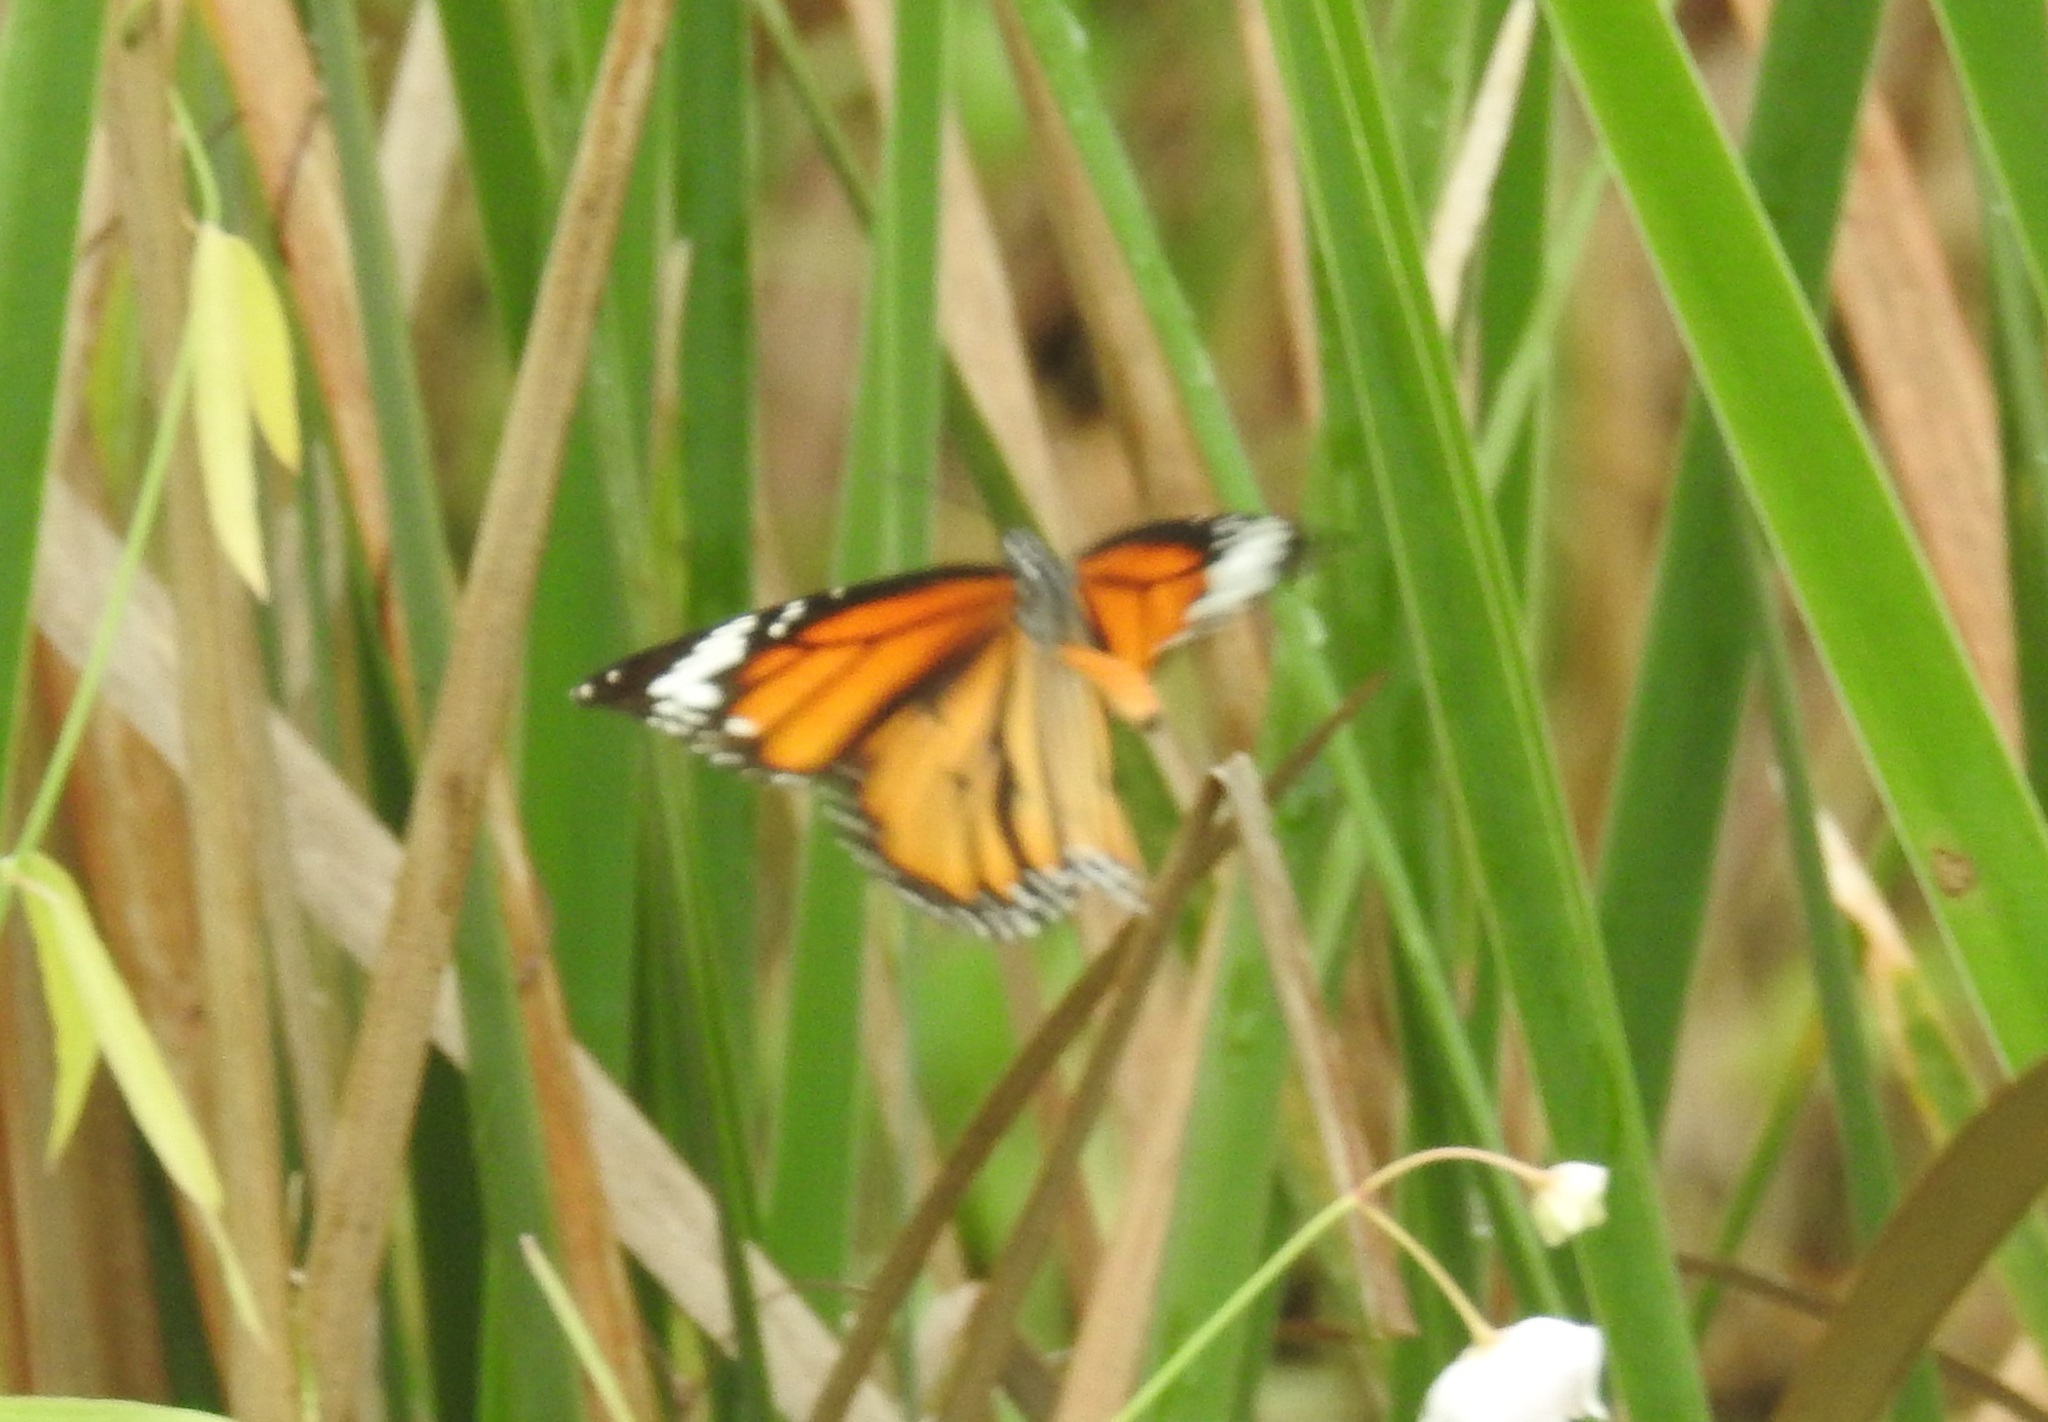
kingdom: Animalia
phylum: Arthropoda
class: Insecta
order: Lepidoptera
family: Nymphalidae
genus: Danaus
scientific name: Danaus genutia
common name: Common tiger butterfly
